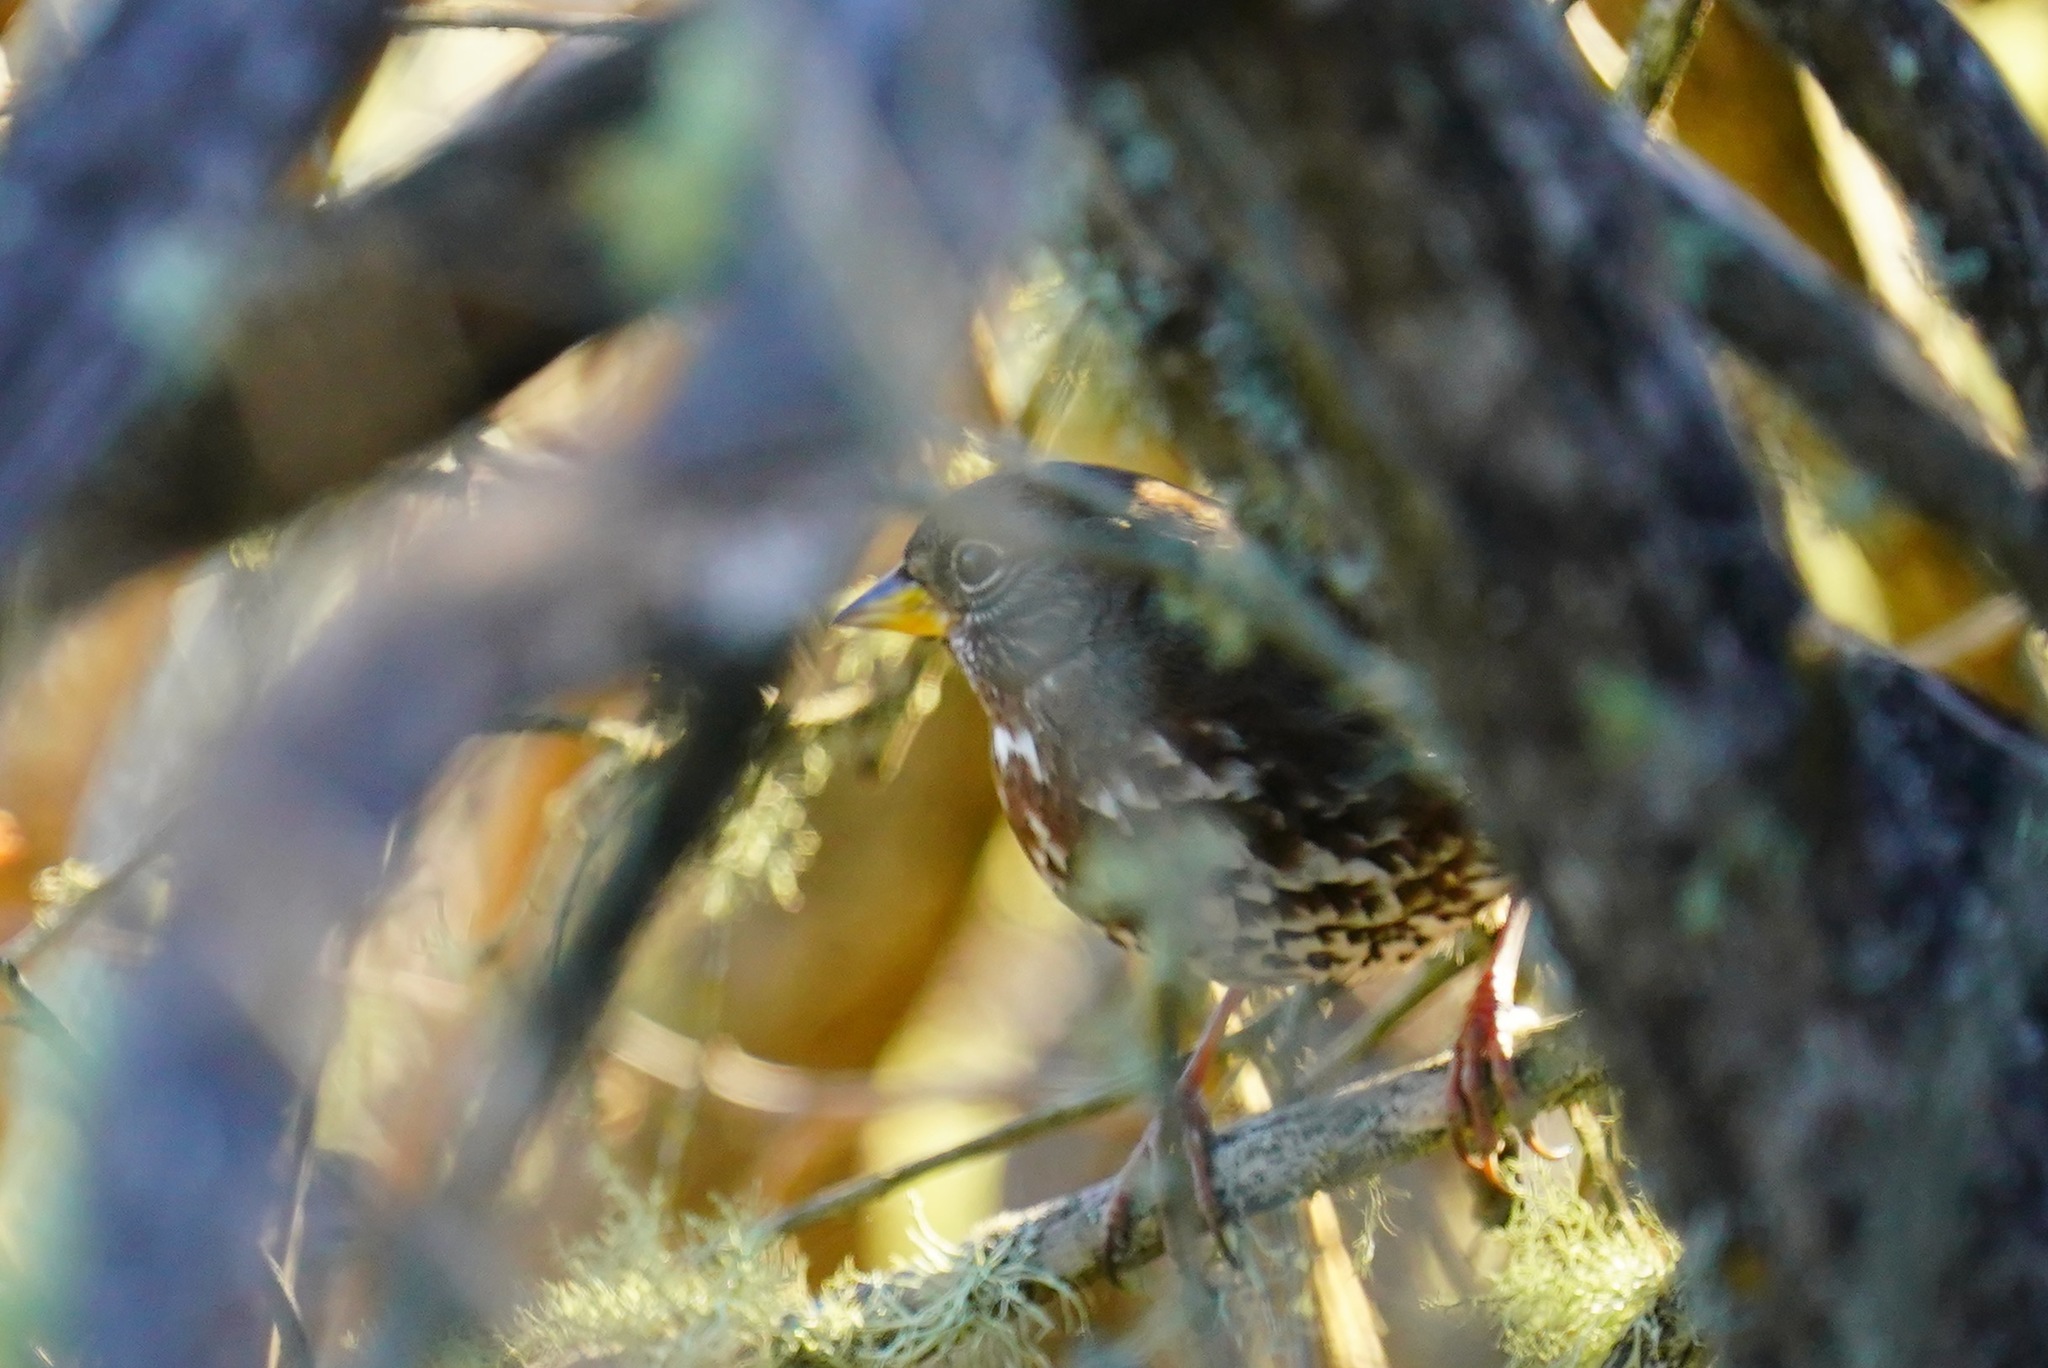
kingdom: Animalia
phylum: Chordata
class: Aves
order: Passeriformes
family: Passerellidae
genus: Passerella
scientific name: Passerella iliaca
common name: Fox sparrow
